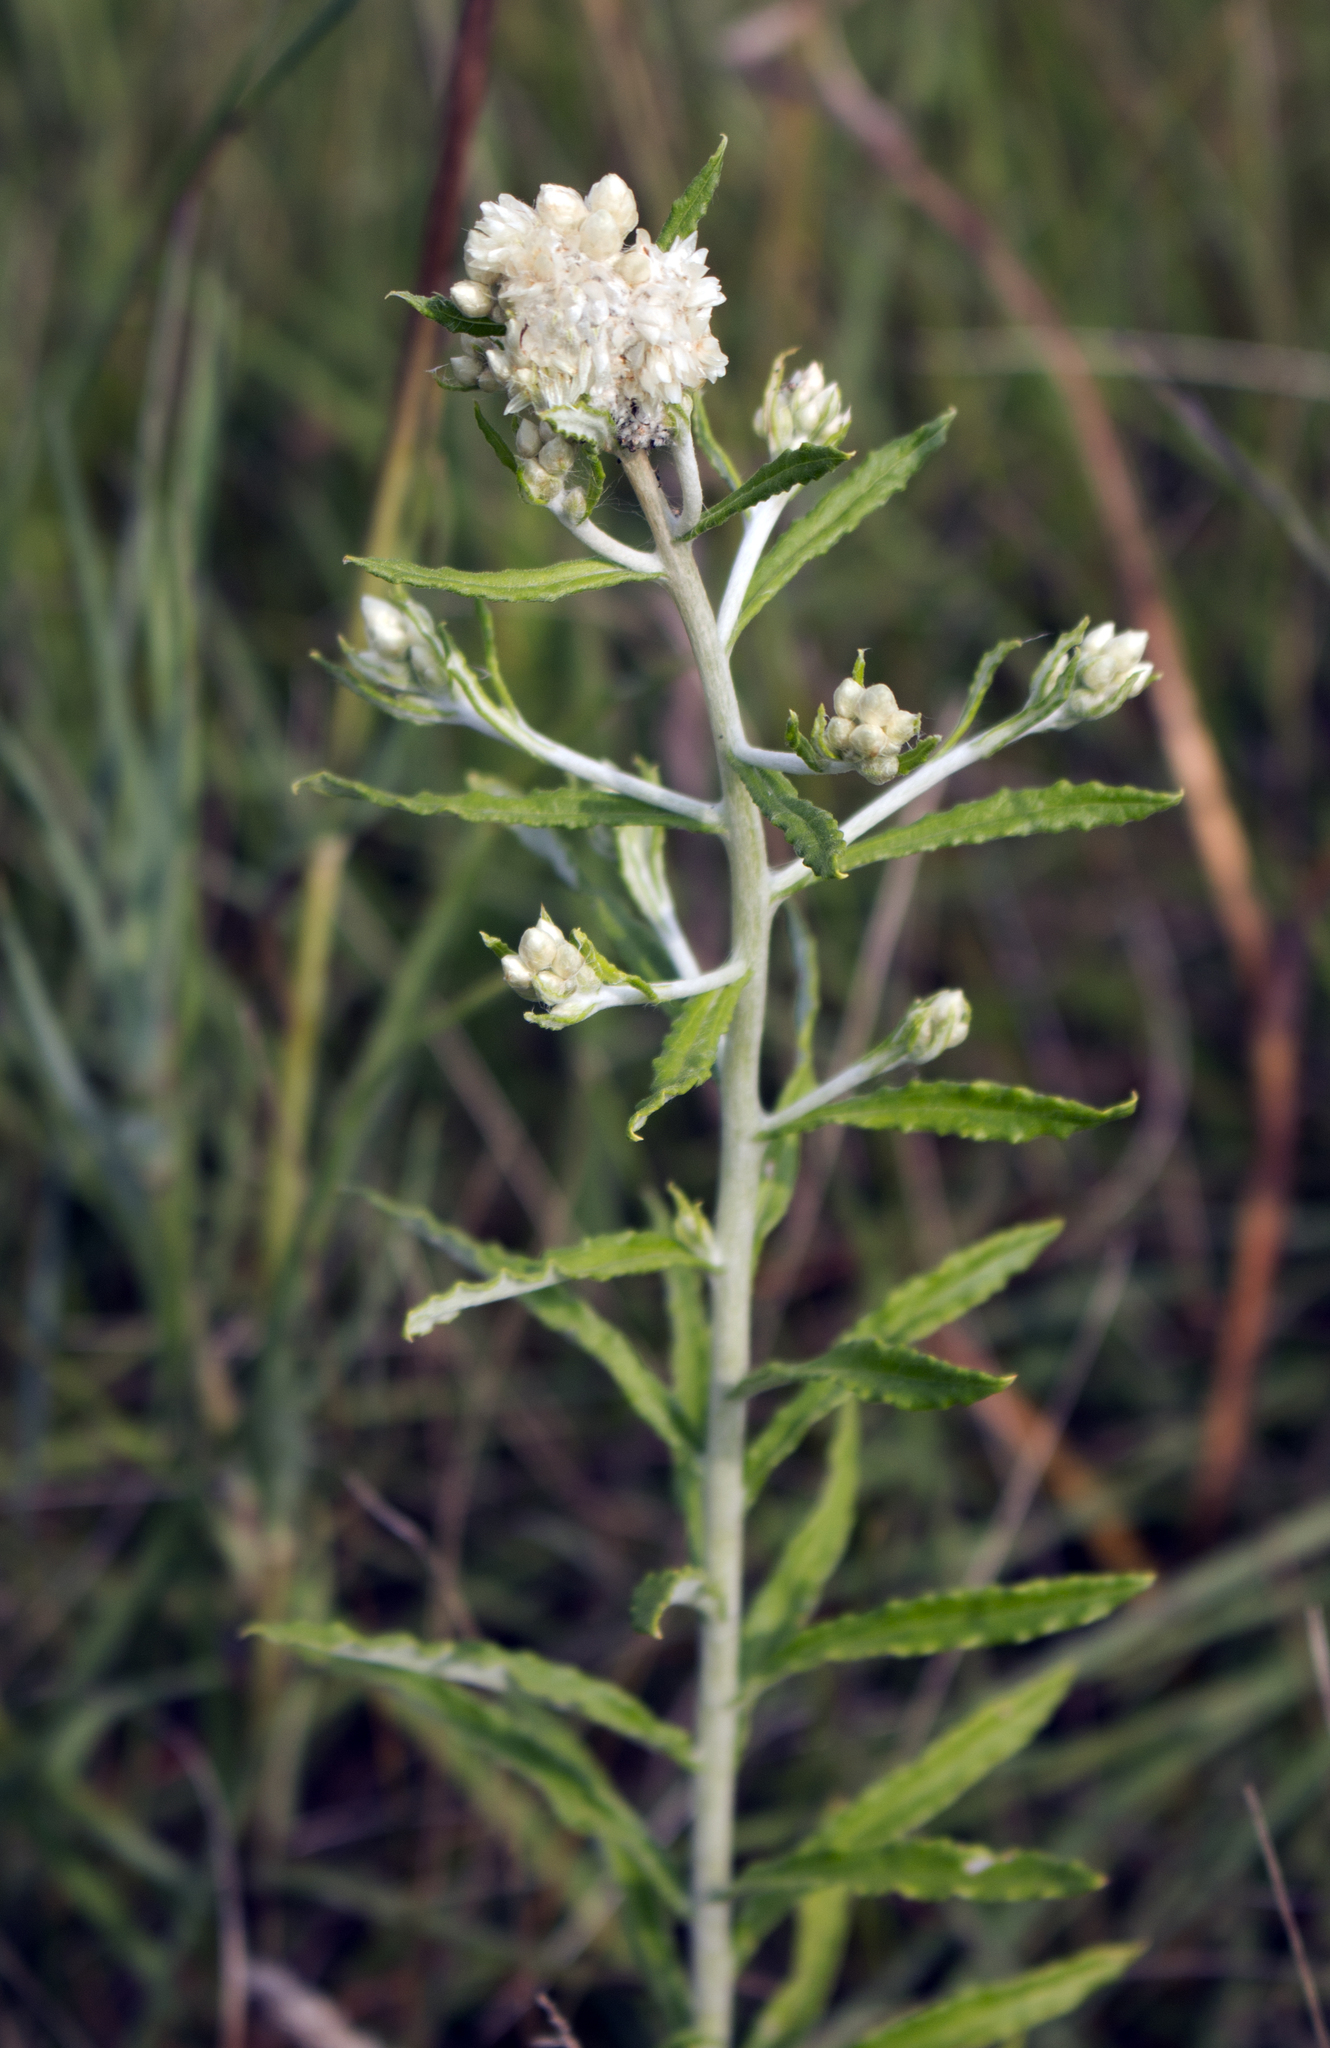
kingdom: Plantae
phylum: Tracheophyta
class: Magnoliopsida
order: Asterales
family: Asteraceae
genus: Pseudognaphalium
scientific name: Pseudognaphalium obtusifolium
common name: Eastern rabbit-tobacco
